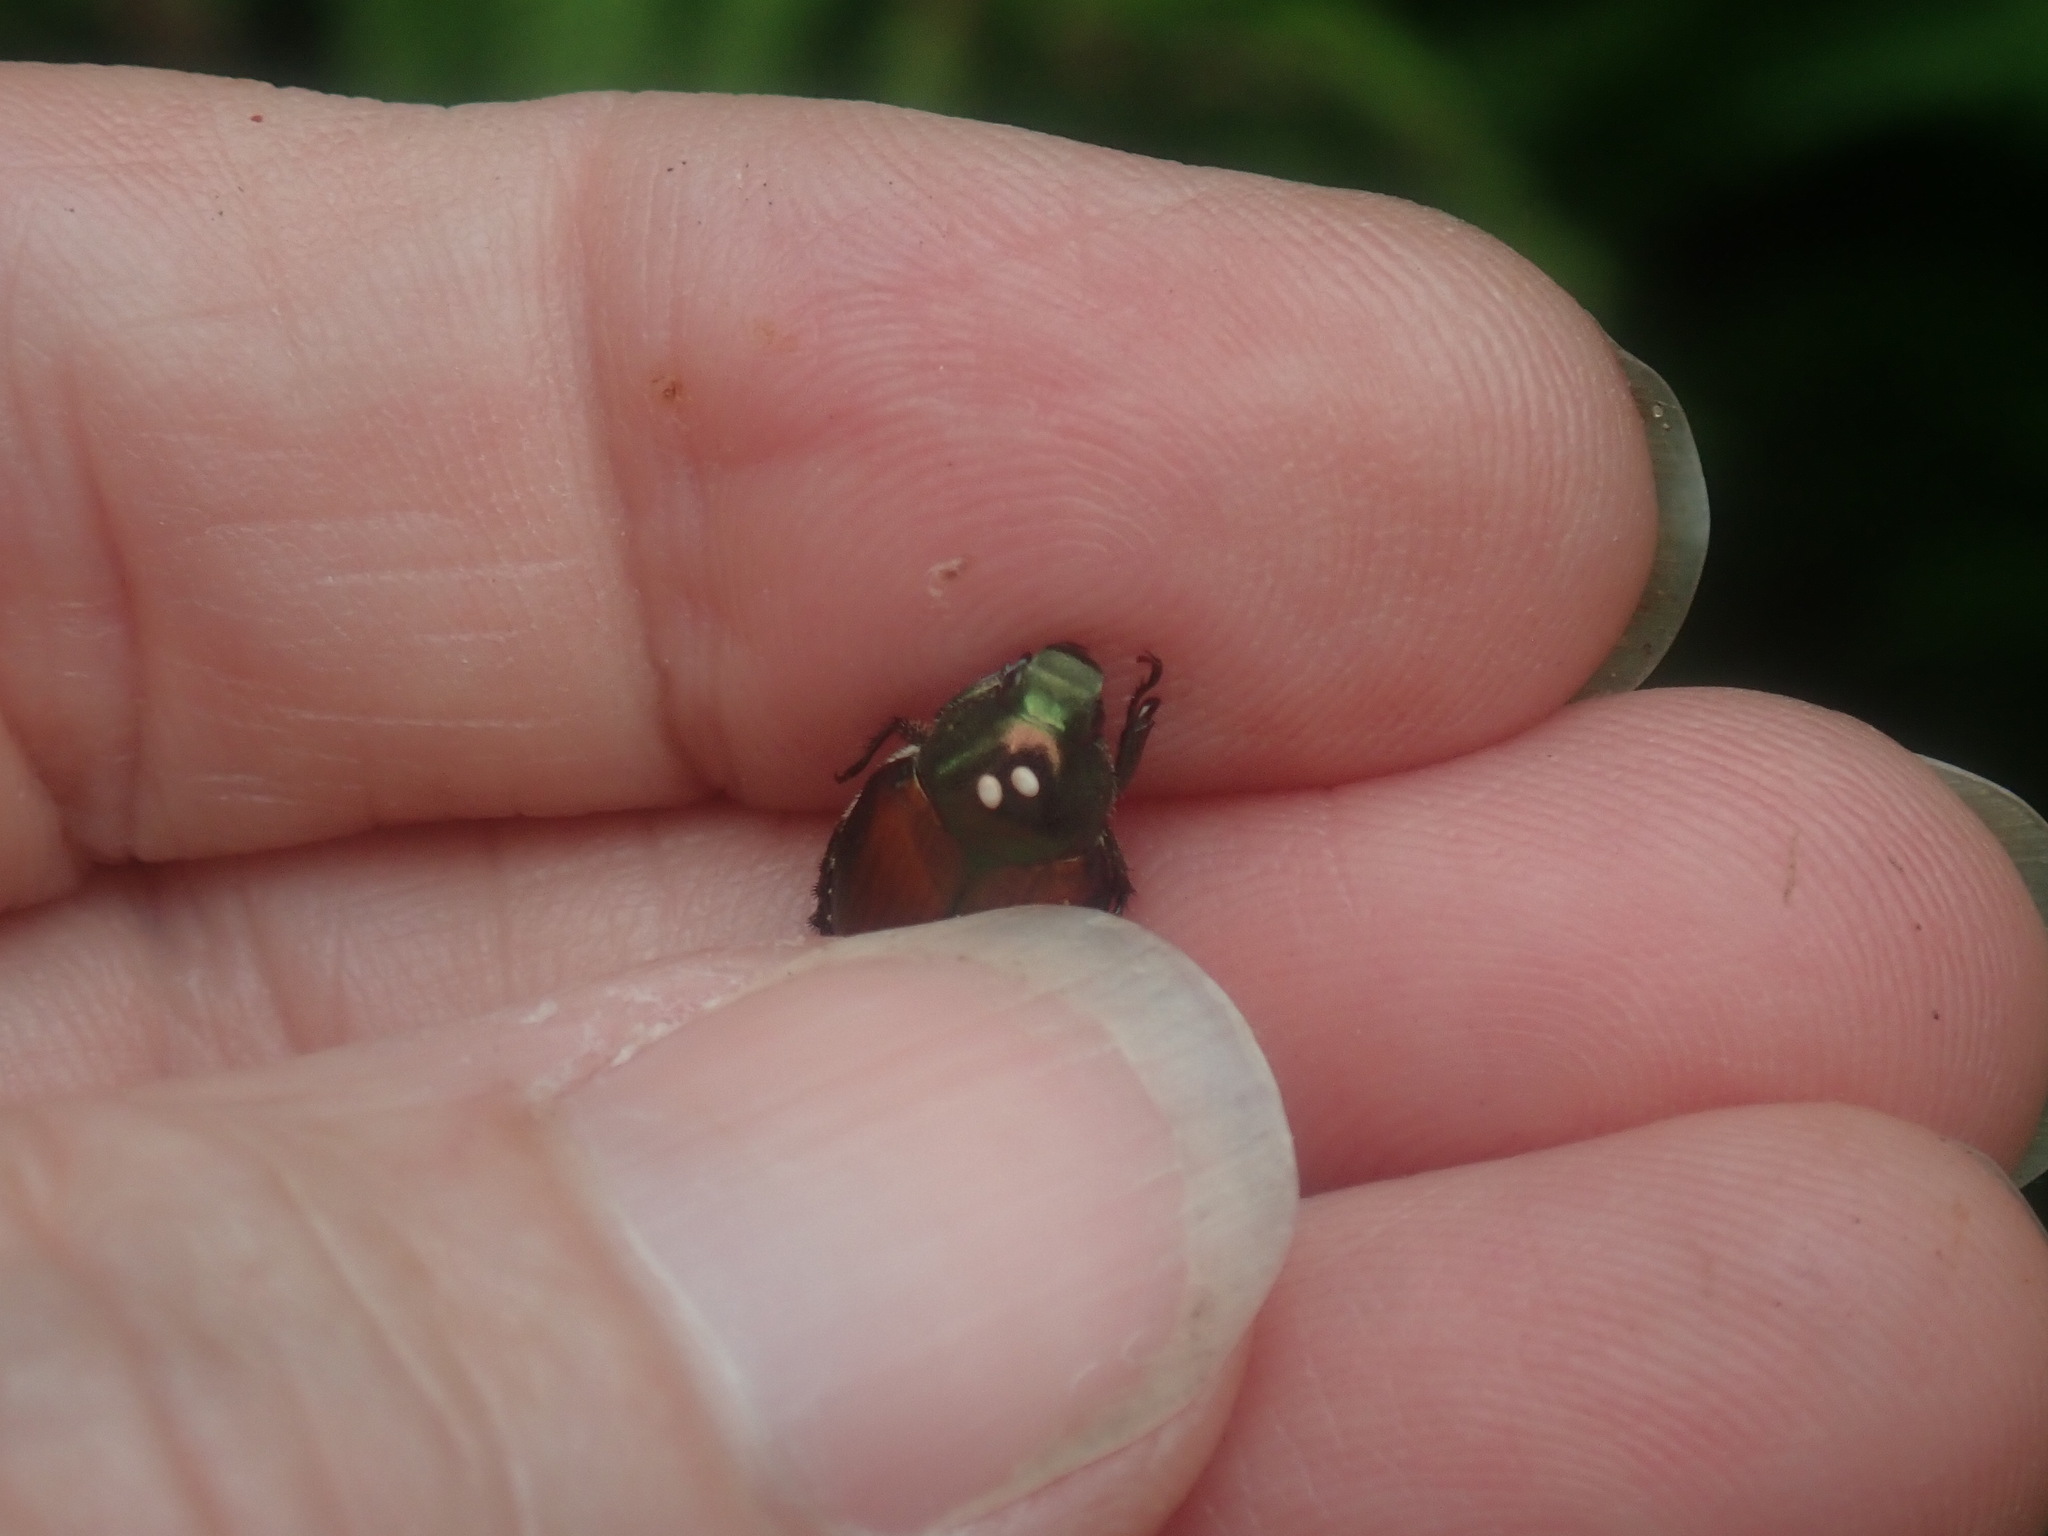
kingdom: Animalia
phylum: Arthropoda
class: Insecta
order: Diptera
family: Tachinidae
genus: Istocheta
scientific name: Istocheta aldrichi
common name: Parasitic wasp
